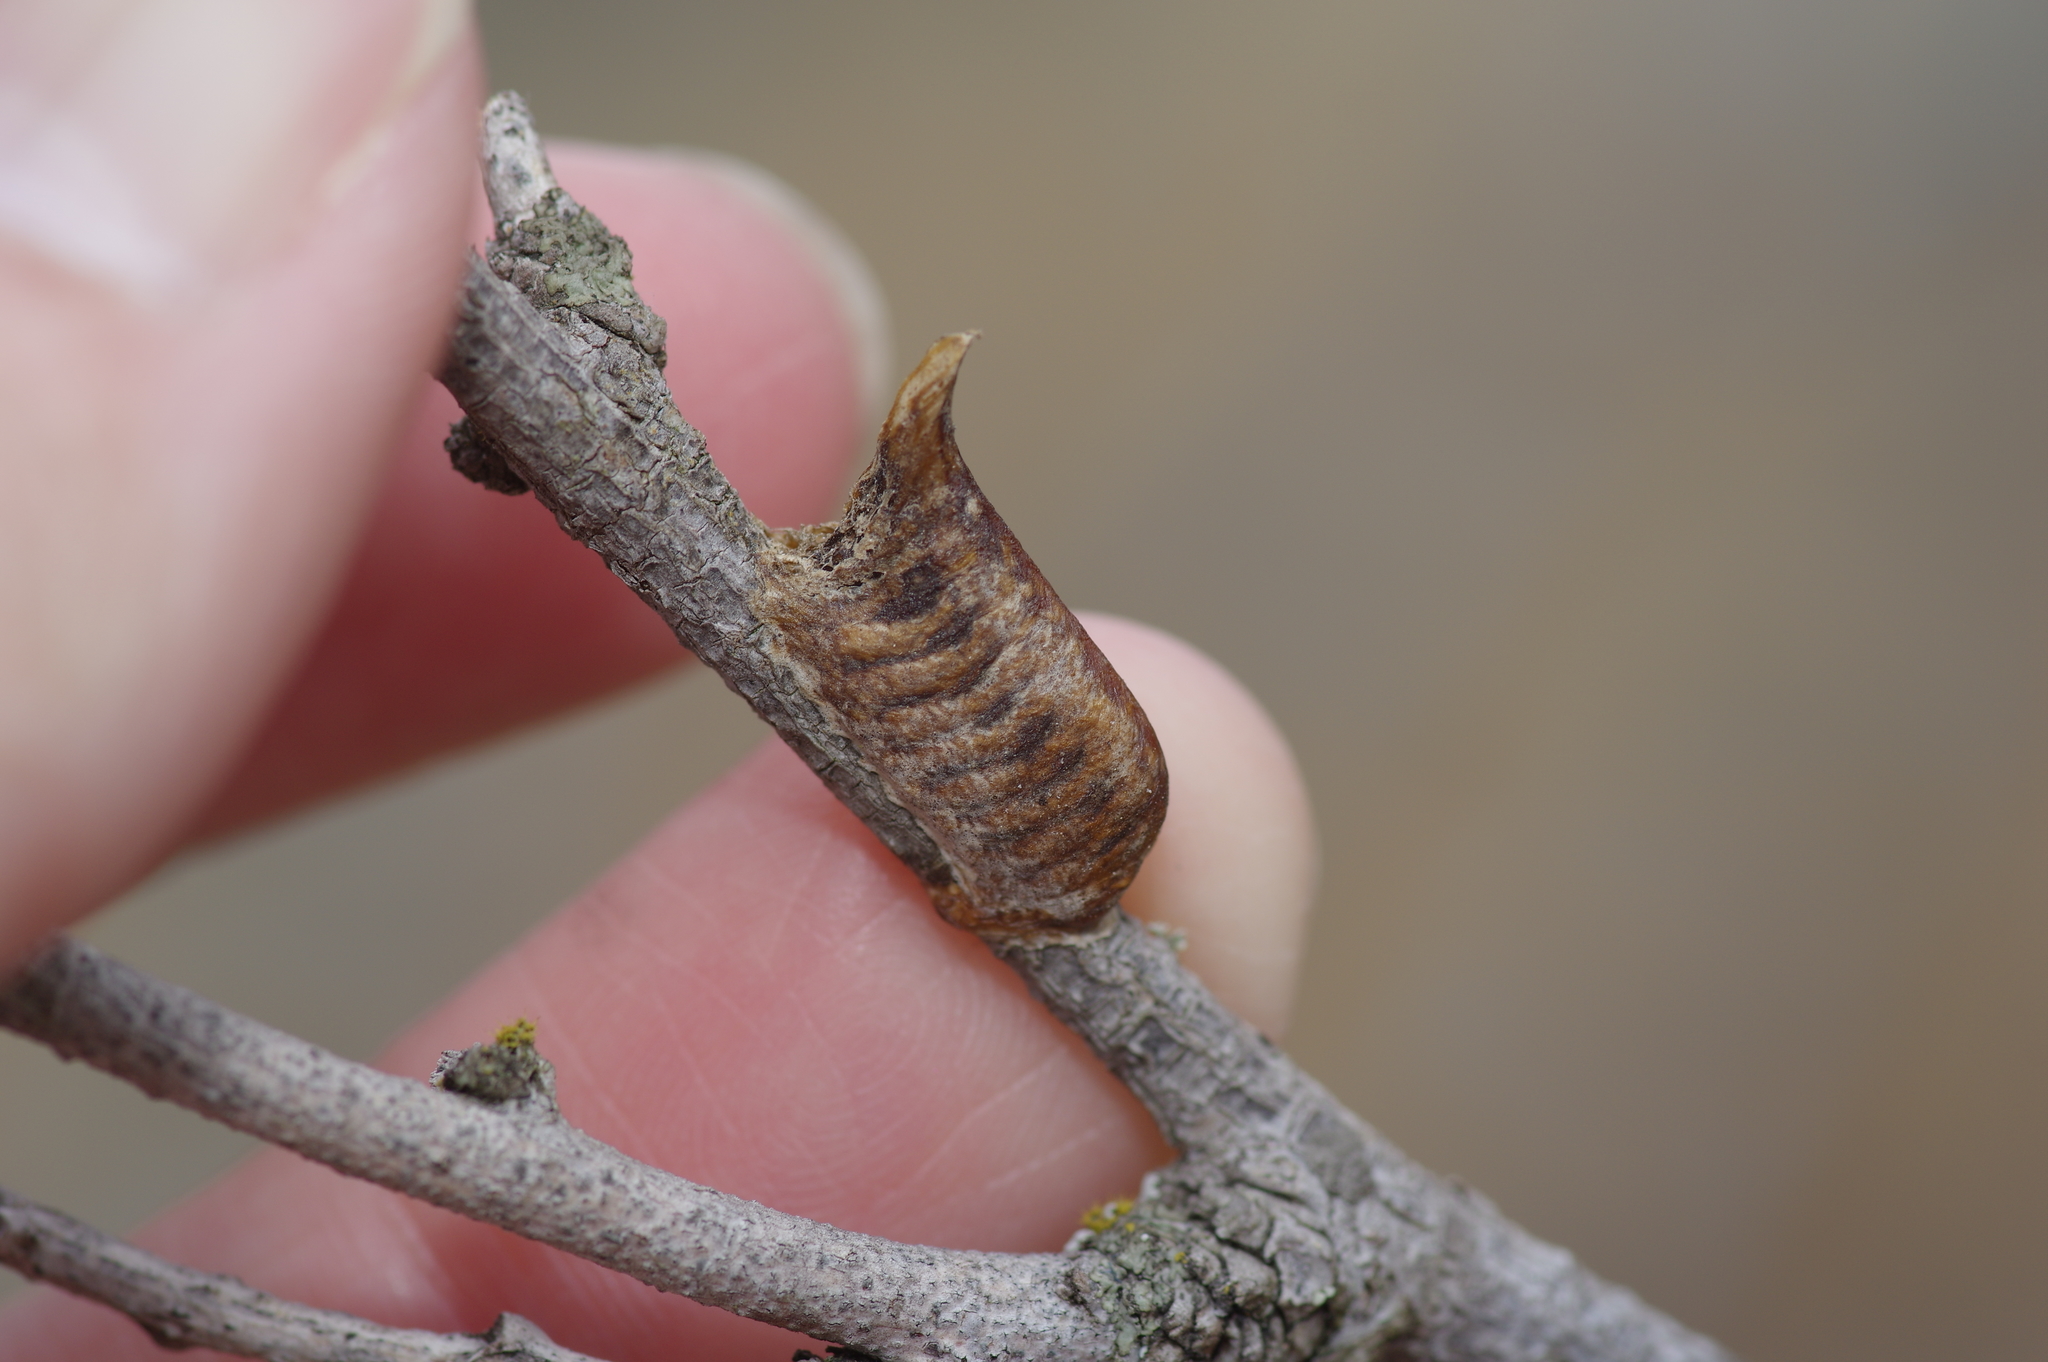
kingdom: Animalia
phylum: Arthropoda
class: Insecta
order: Mantodea
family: Coptopterygidae
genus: Brunneria
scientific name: Brunneria borealis
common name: Mantis
